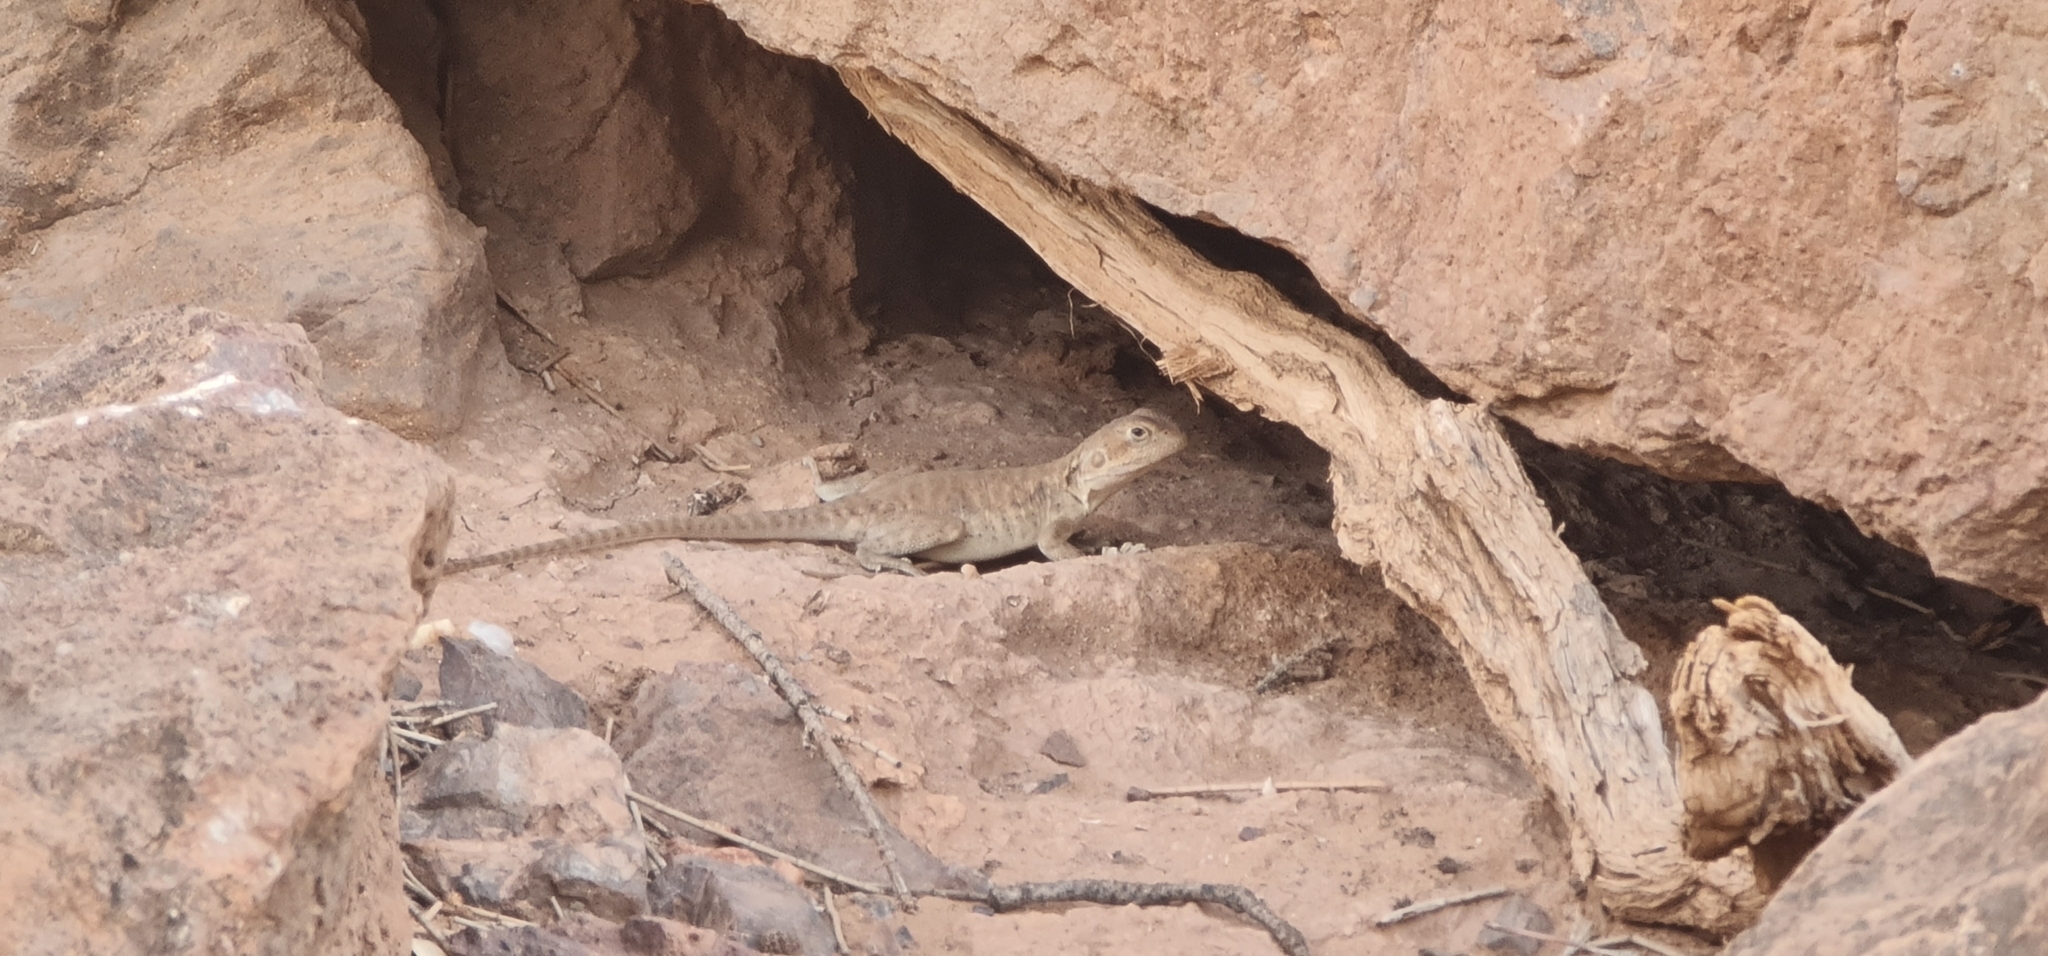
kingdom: Animalia
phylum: Chordata
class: Squamata
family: Agamidae
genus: Ctenophorus
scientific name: Ctenophorus vadnappa
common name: Red-barred crevice-dragon
